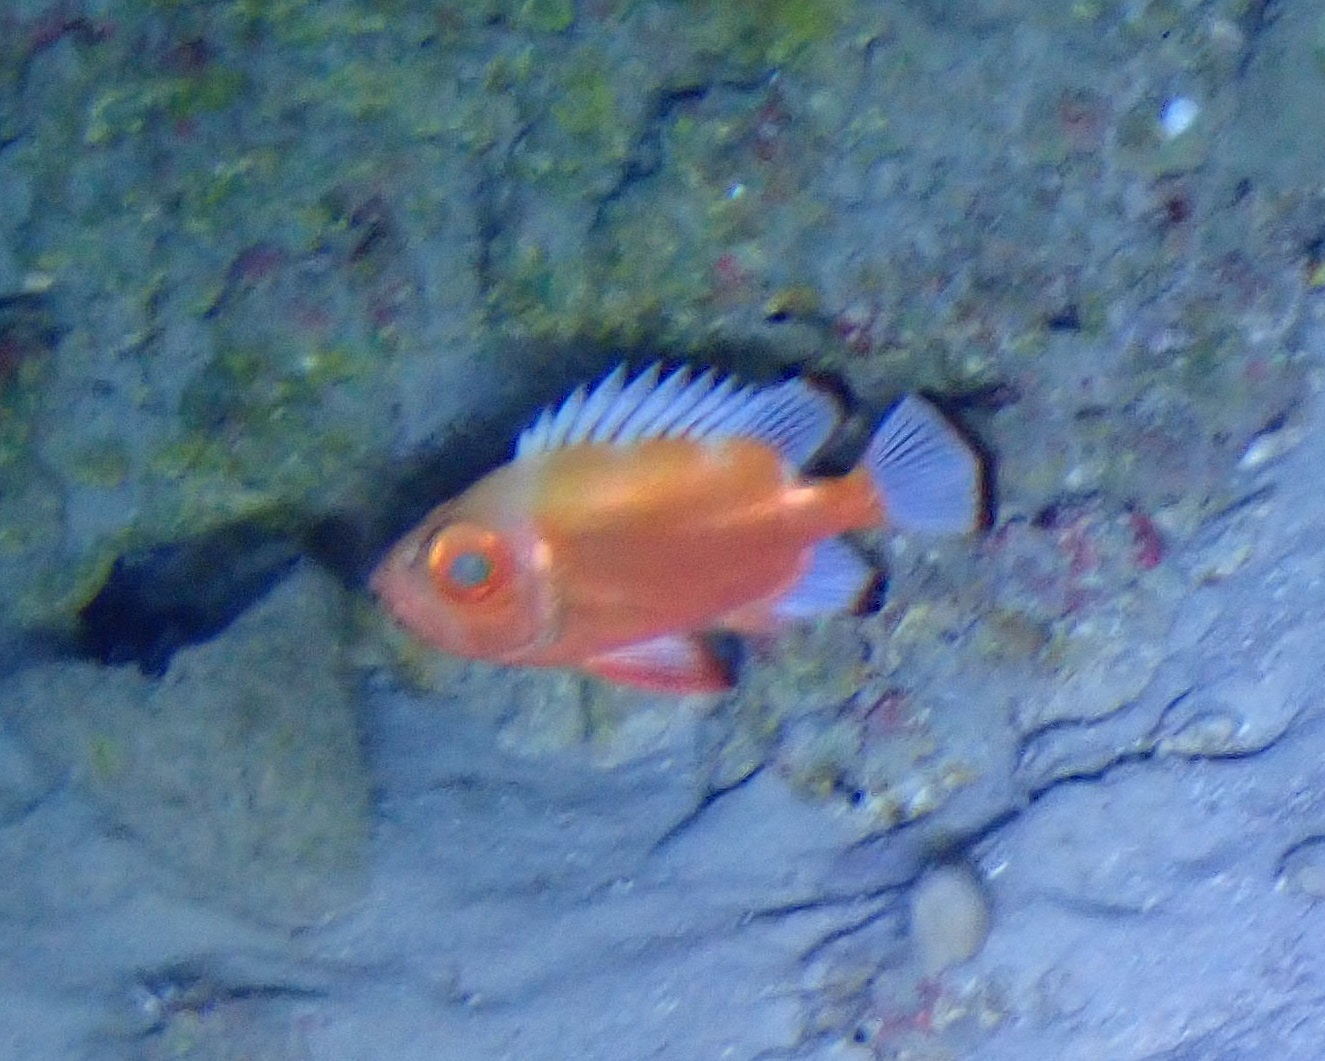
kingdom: Animalia
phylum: Chordata
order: Perciformes
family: Priacanthidae
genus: Pristigenys
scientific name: Pristigenys alta
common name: Short bigeye
